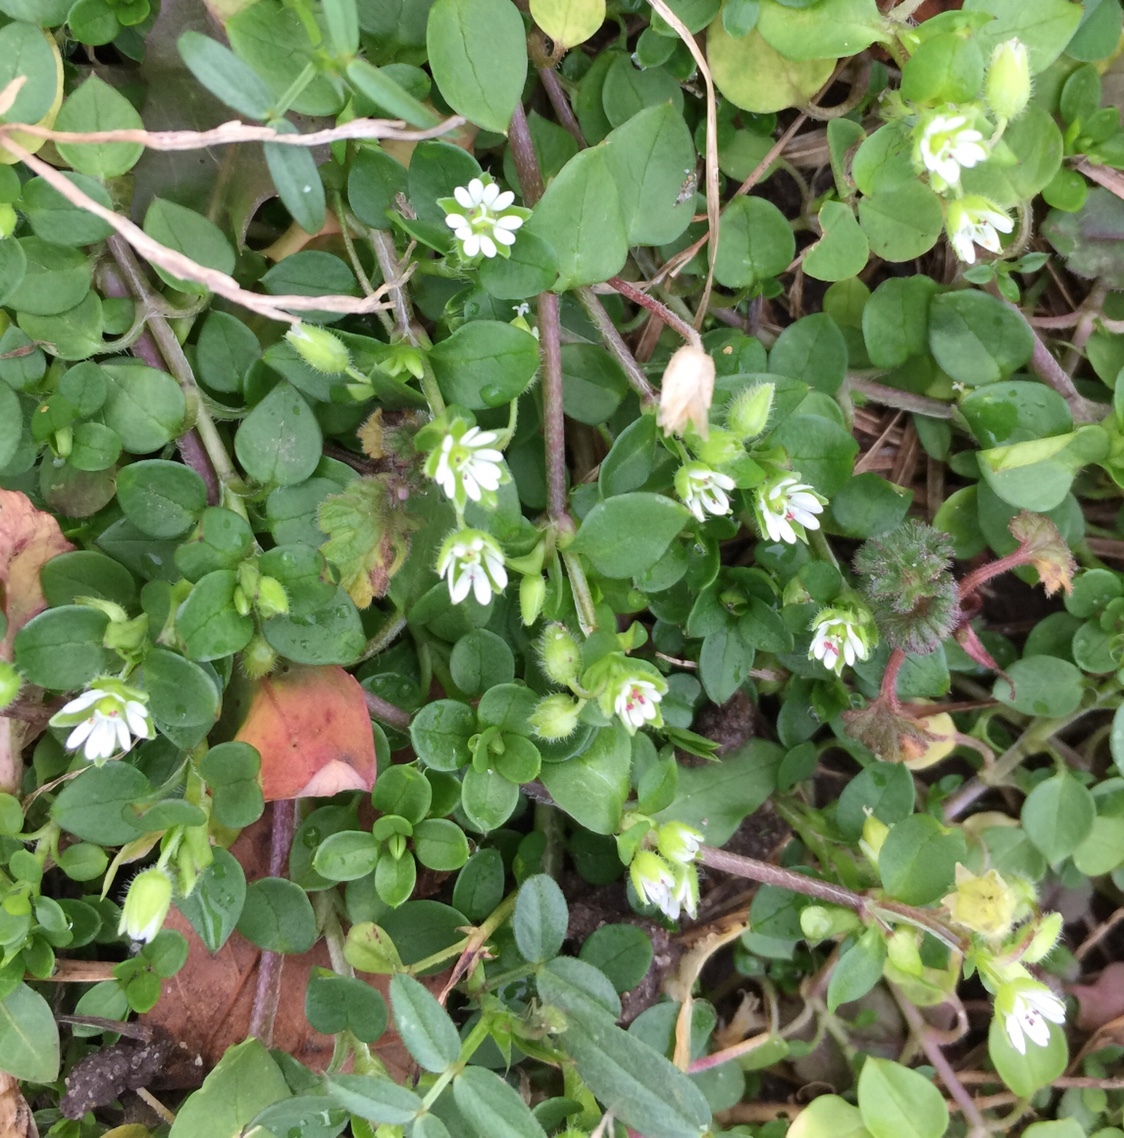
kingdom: Plantae
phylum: Tracheophyta
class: Magnoliopsida
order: Caryophyllales
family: Caryophyllaceae
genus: Stellaria
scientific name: Stellaria media
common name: Common chickweed
